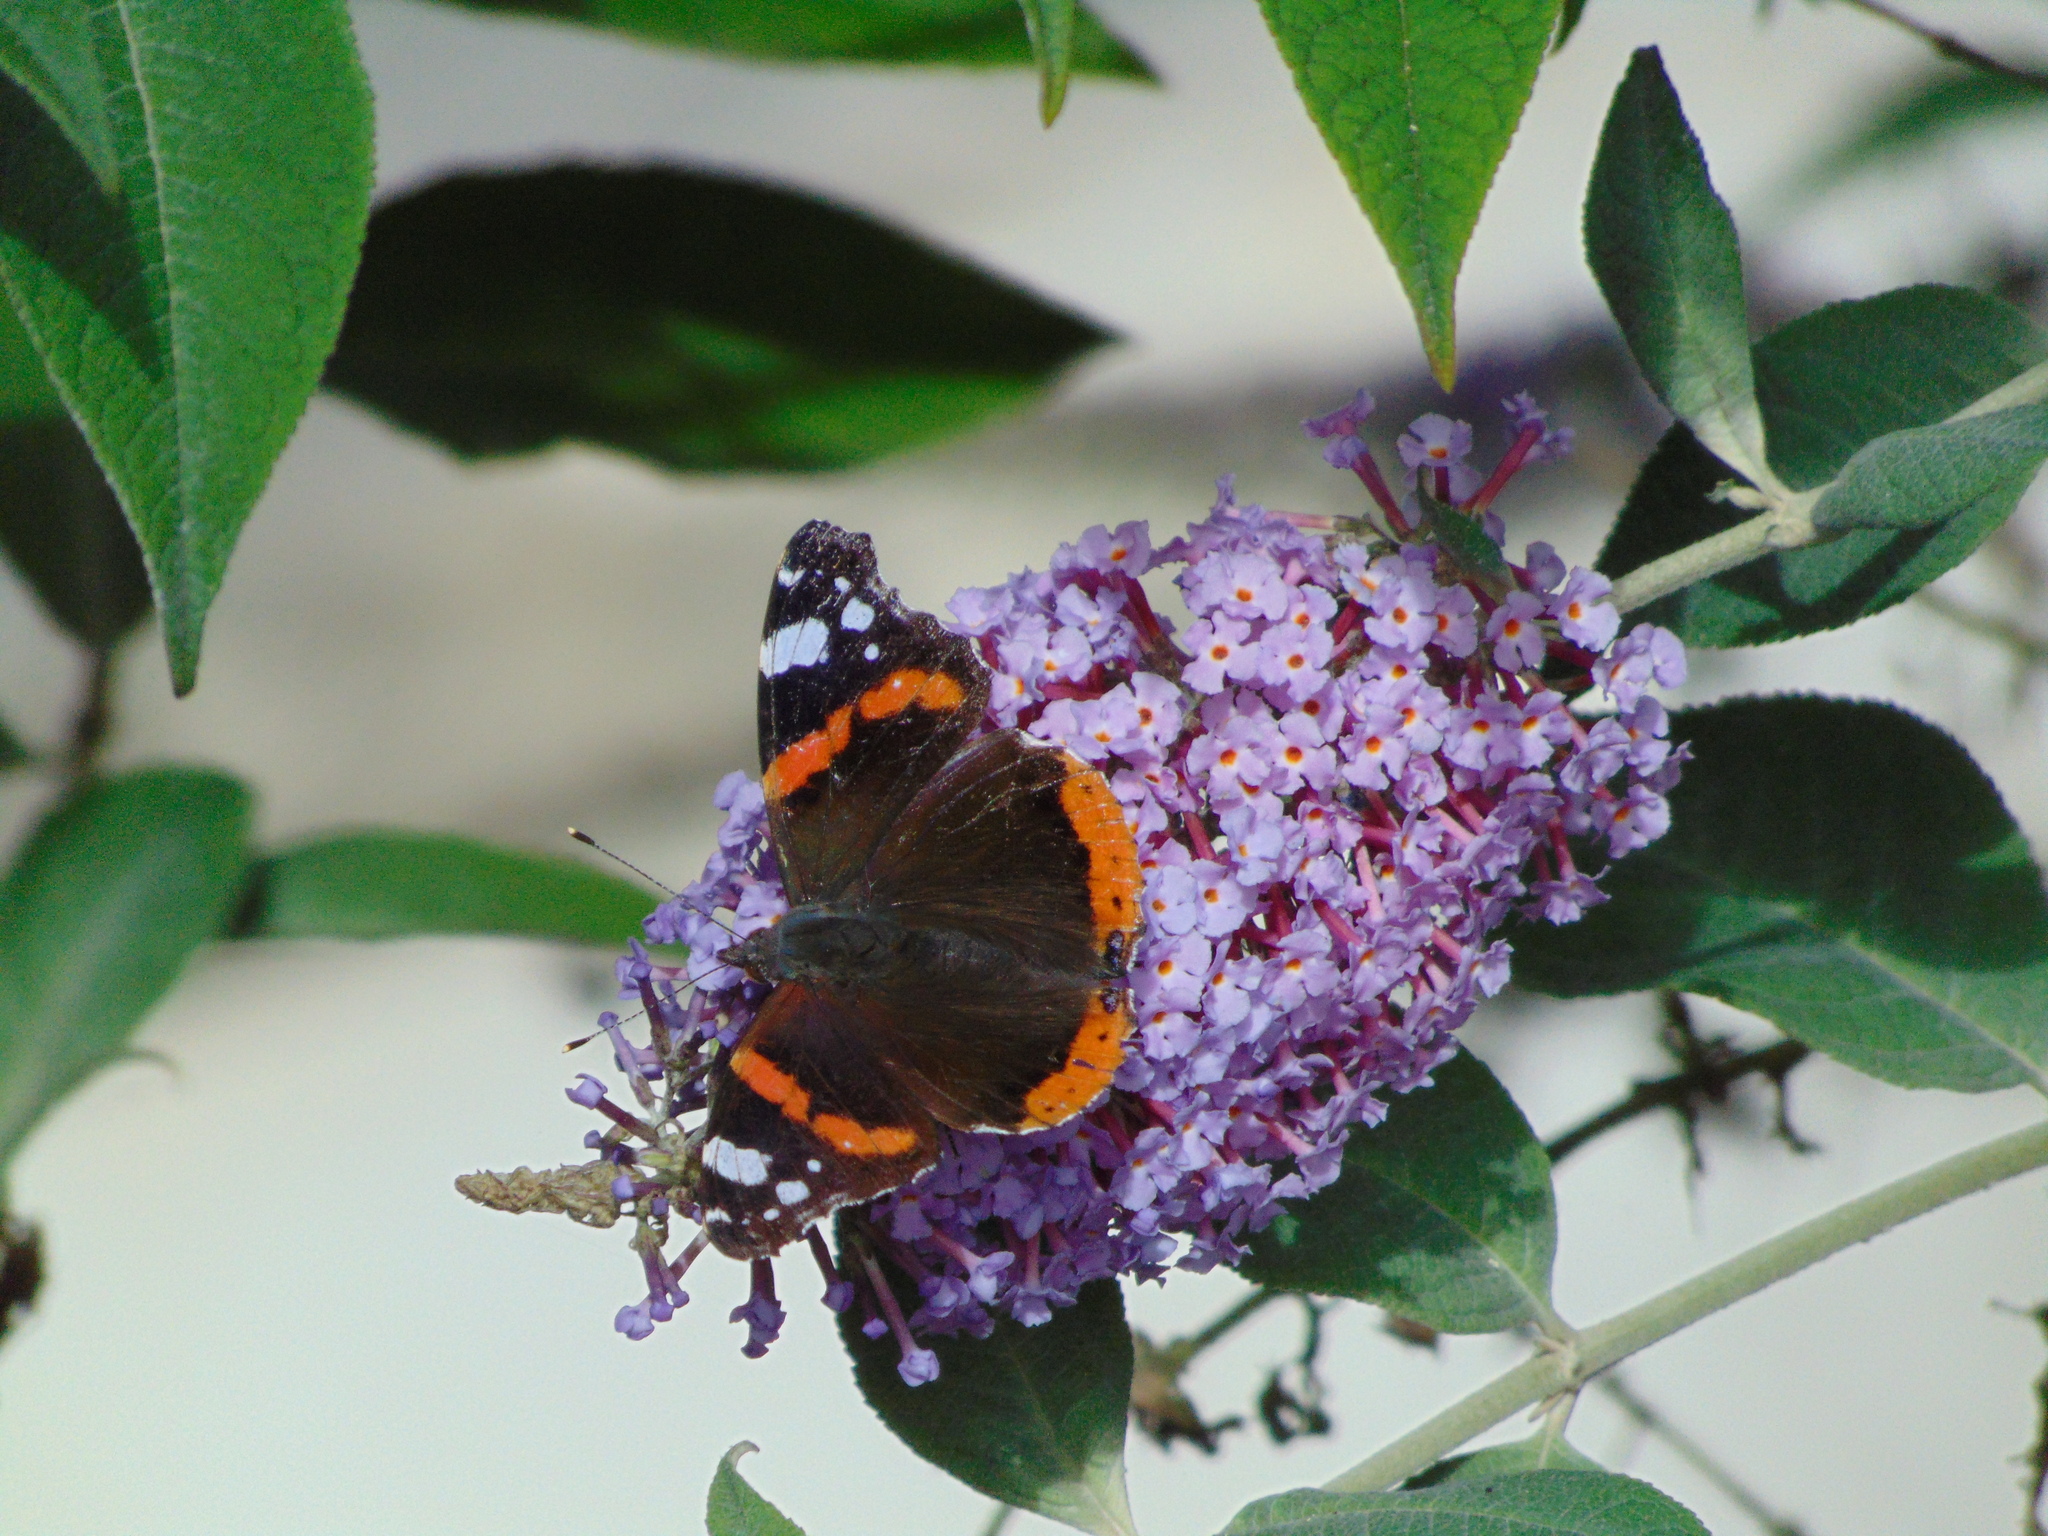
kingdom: Animalia
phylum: Arthropoda
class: Insecta
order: Lepidoptera
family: Nymphalidae
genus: Vanessa
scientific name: Vanessa atalanta
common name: Red admiral
